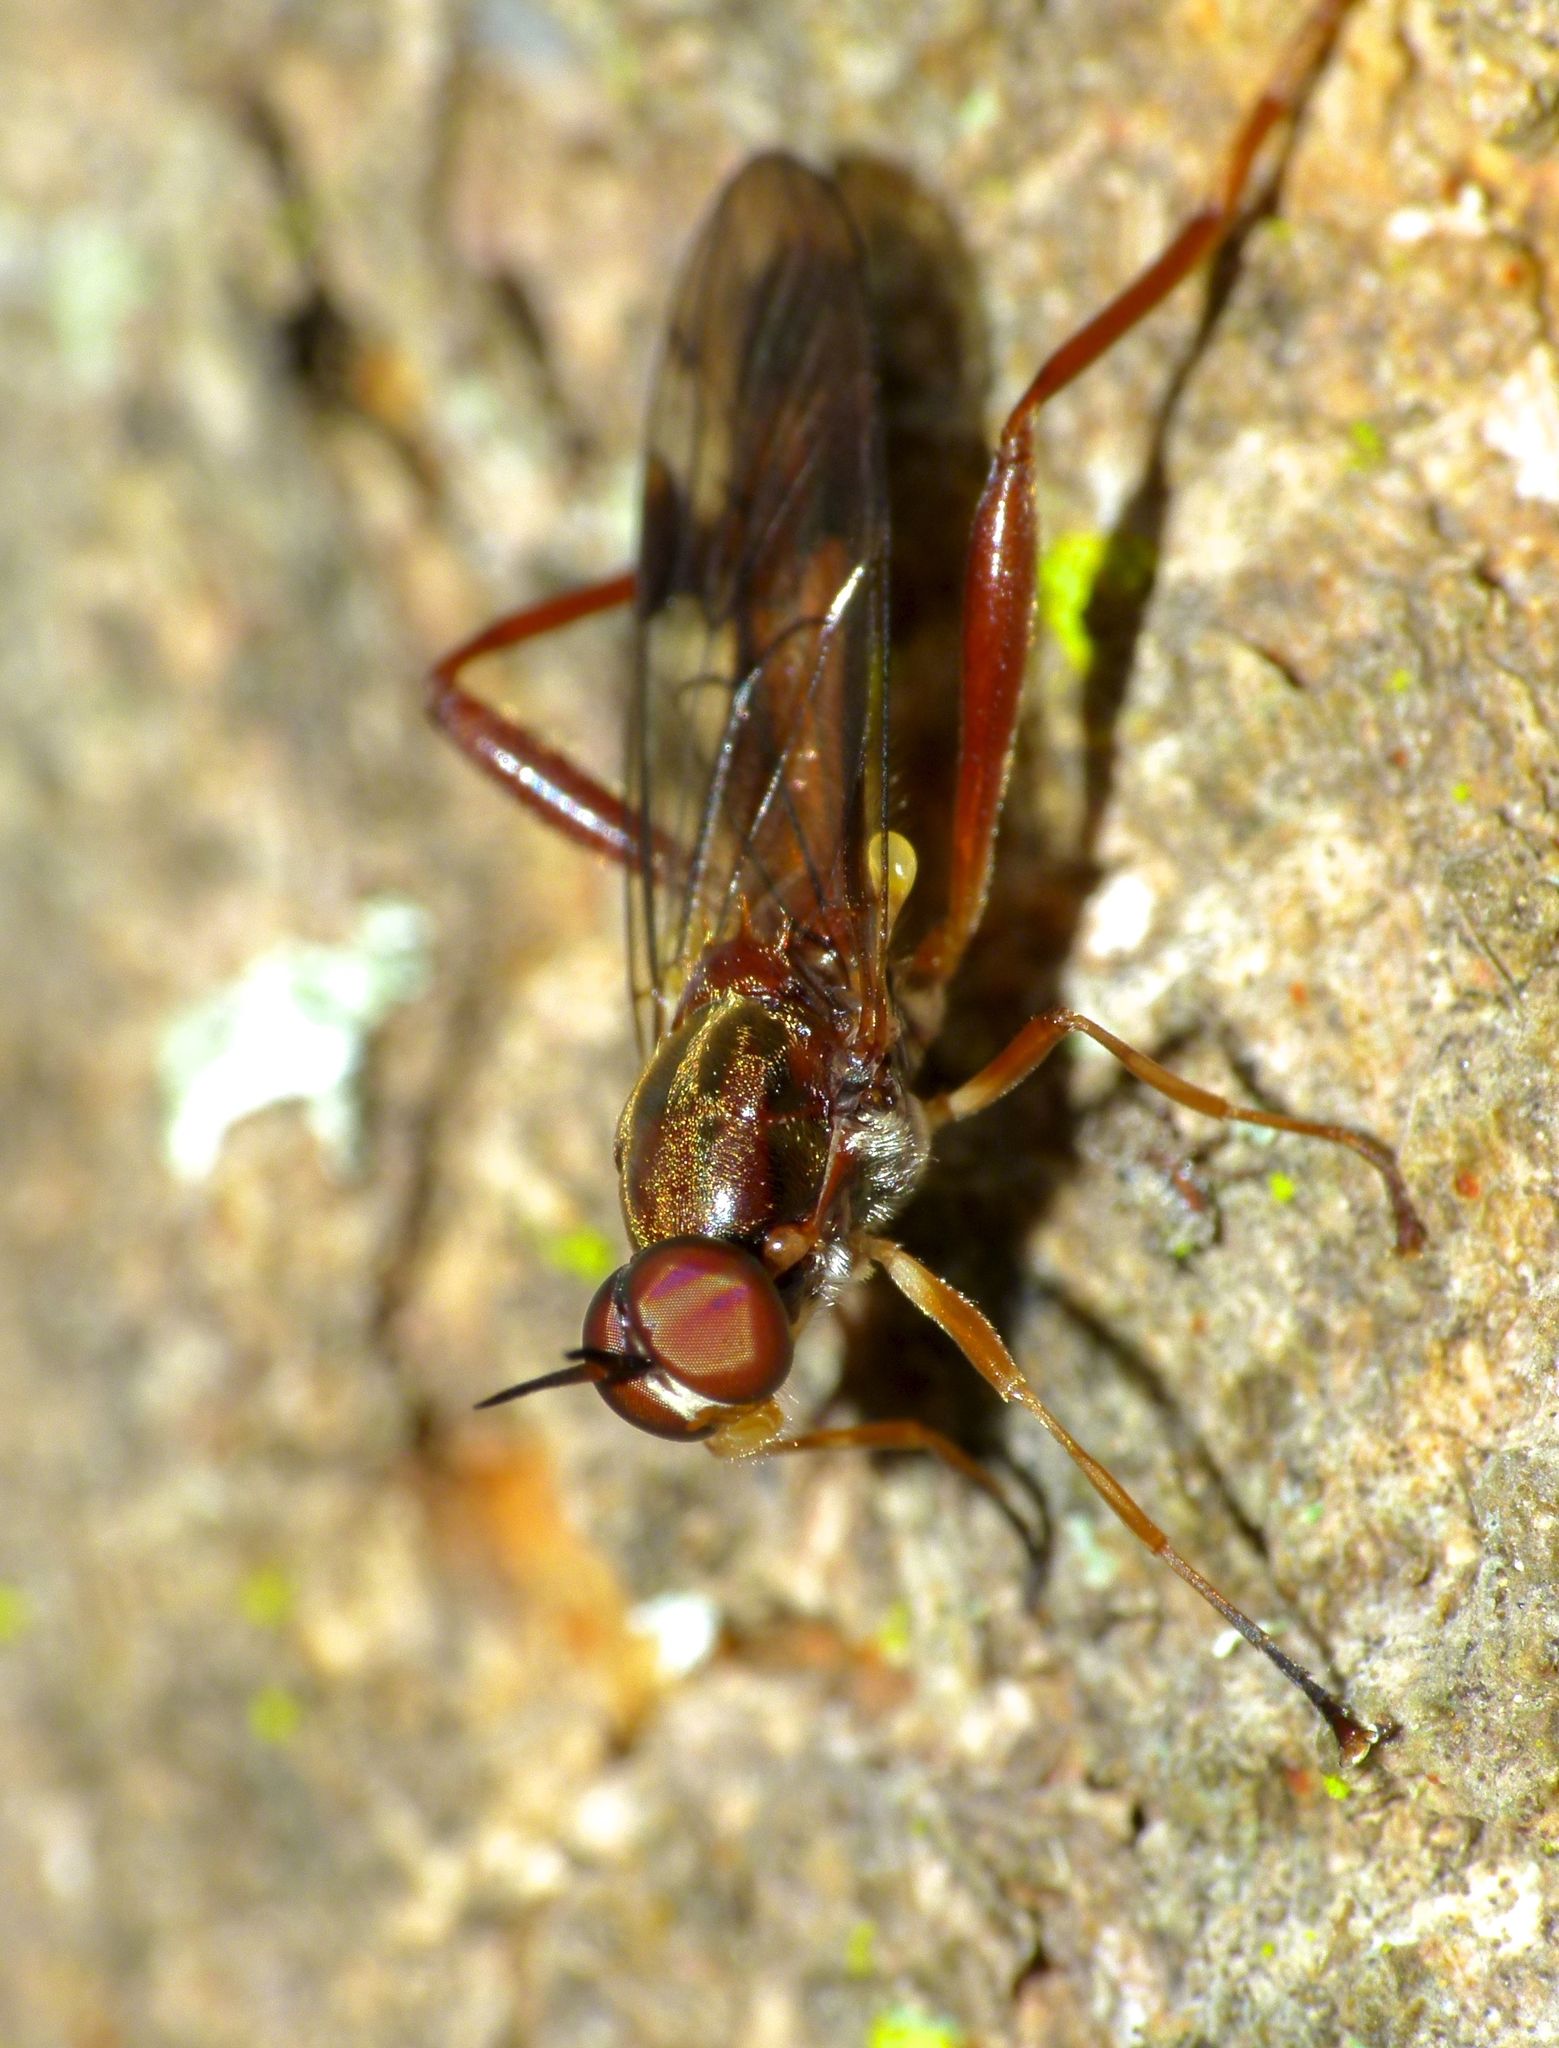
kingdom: Animalia
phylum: Arthropoda
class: Insecta
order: Diptera
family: Stratiomyidae
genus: Benhamyia
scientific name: Benhamyia straznitzkii
